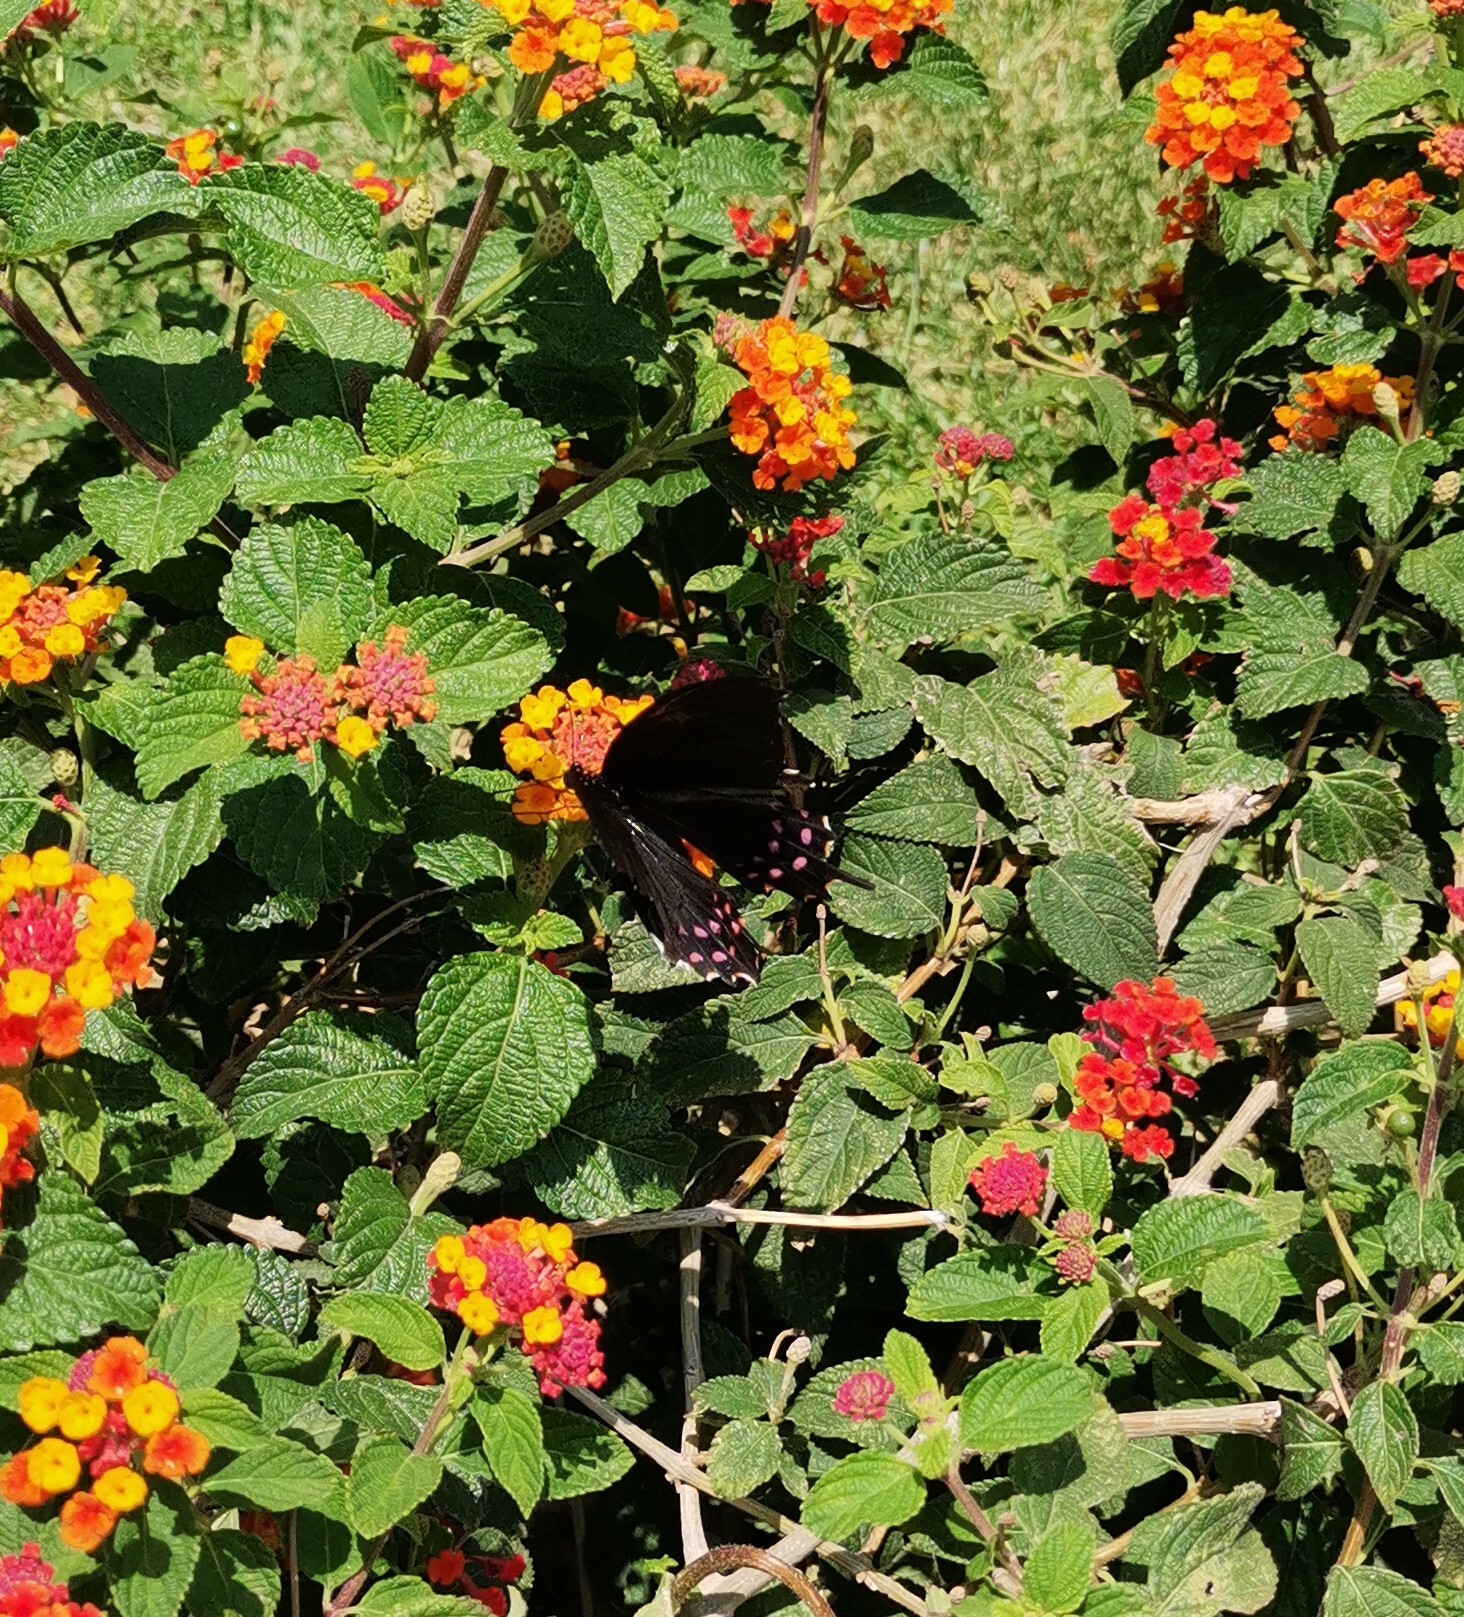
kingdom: Animalia
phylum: Arthropoda
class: Insecta
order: Lepidoptera
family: Papilionidae
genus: Heraclides
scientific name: Heraclides rogeri
